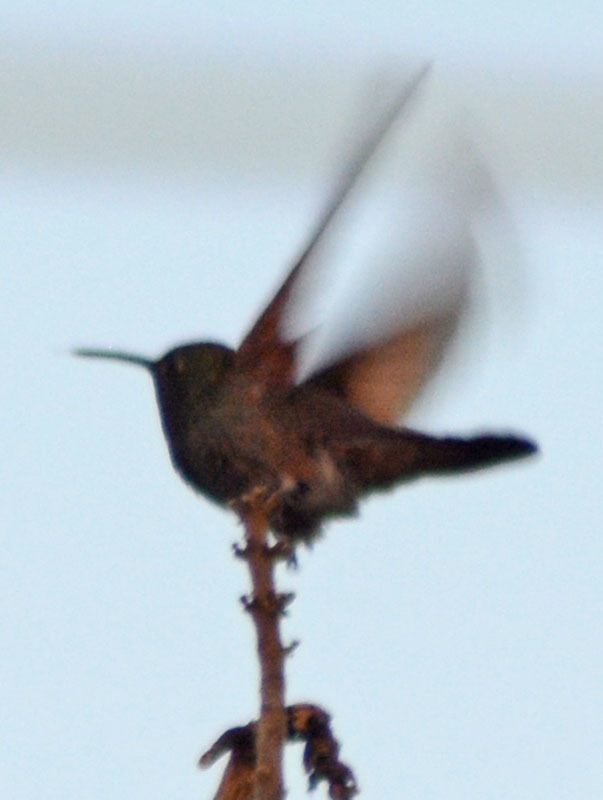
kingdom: Animalia
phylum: Chordata
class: Aves
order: Apodiformes
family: Trochilidae
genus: Saucerottia
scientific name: Saucerottia beryllina
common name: Berylline hummingbird
